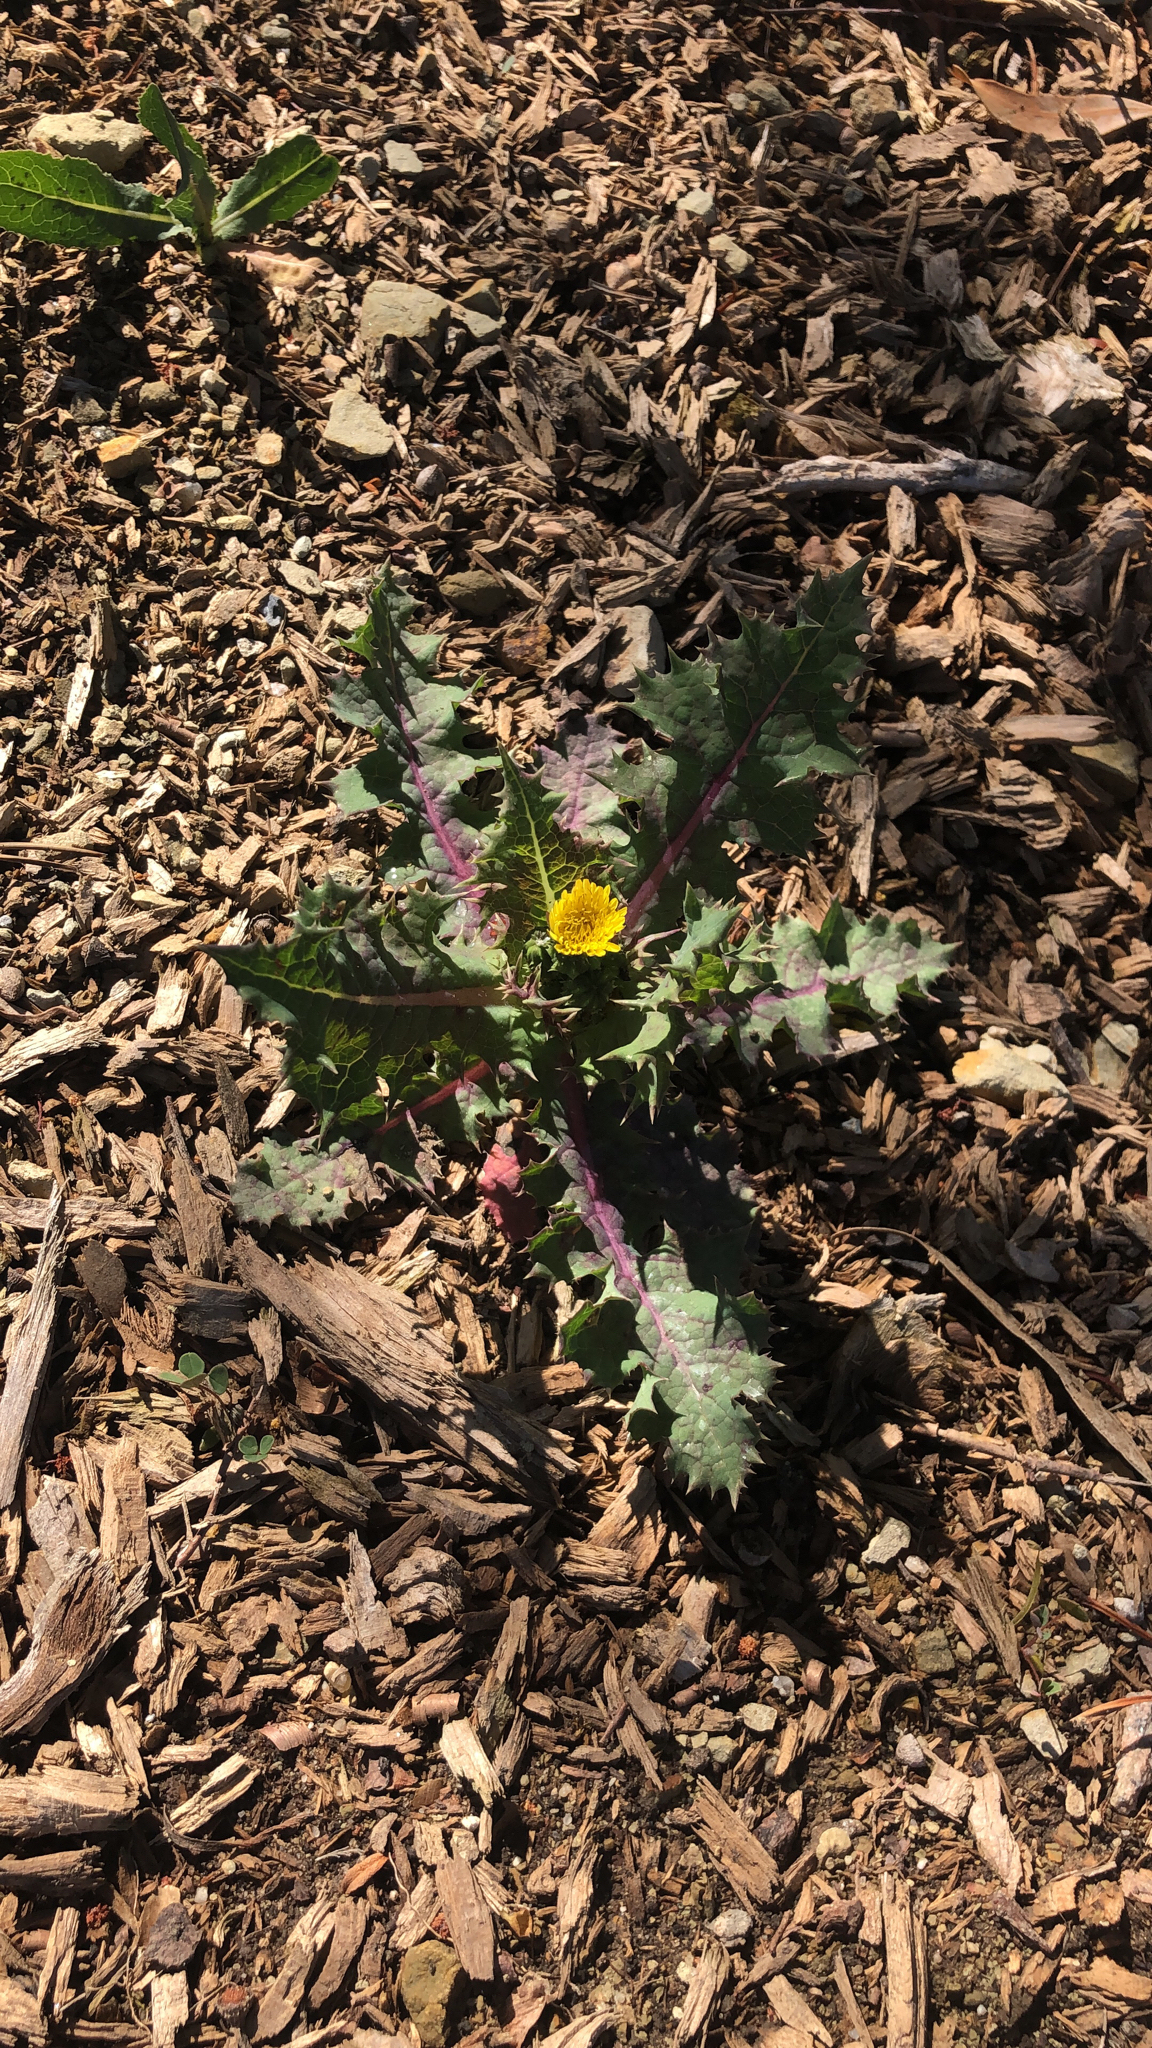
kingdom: Plantae
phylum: Tracheophyta
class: Magnoliopsida
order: Asterales
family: Asteraceae
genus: Sonchus
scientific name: Sonchus asper
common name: Prickly sow-thistle
